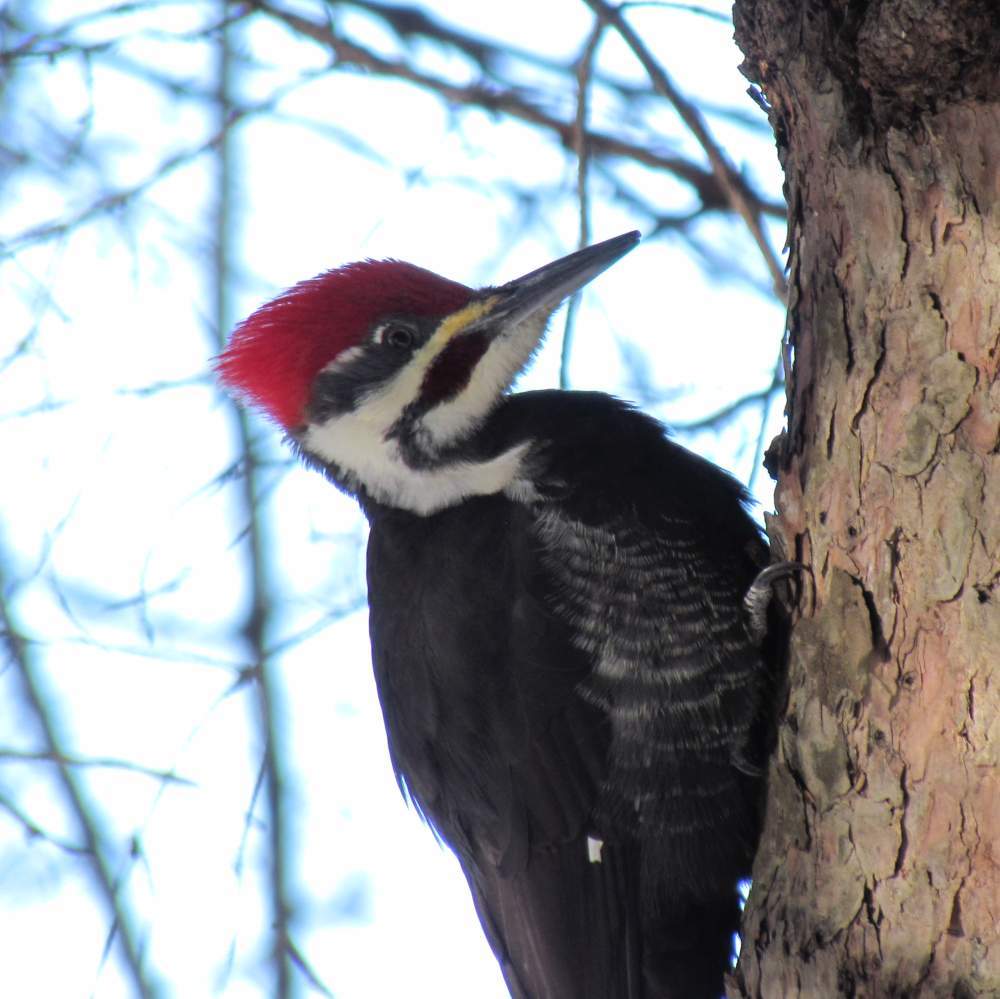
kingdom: Animalia
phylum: Chordata
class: Aves
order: Piciformes
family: Picidae
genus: Dryocopus
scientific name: Dryocopus pileatus
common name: Pileated woodpecker
